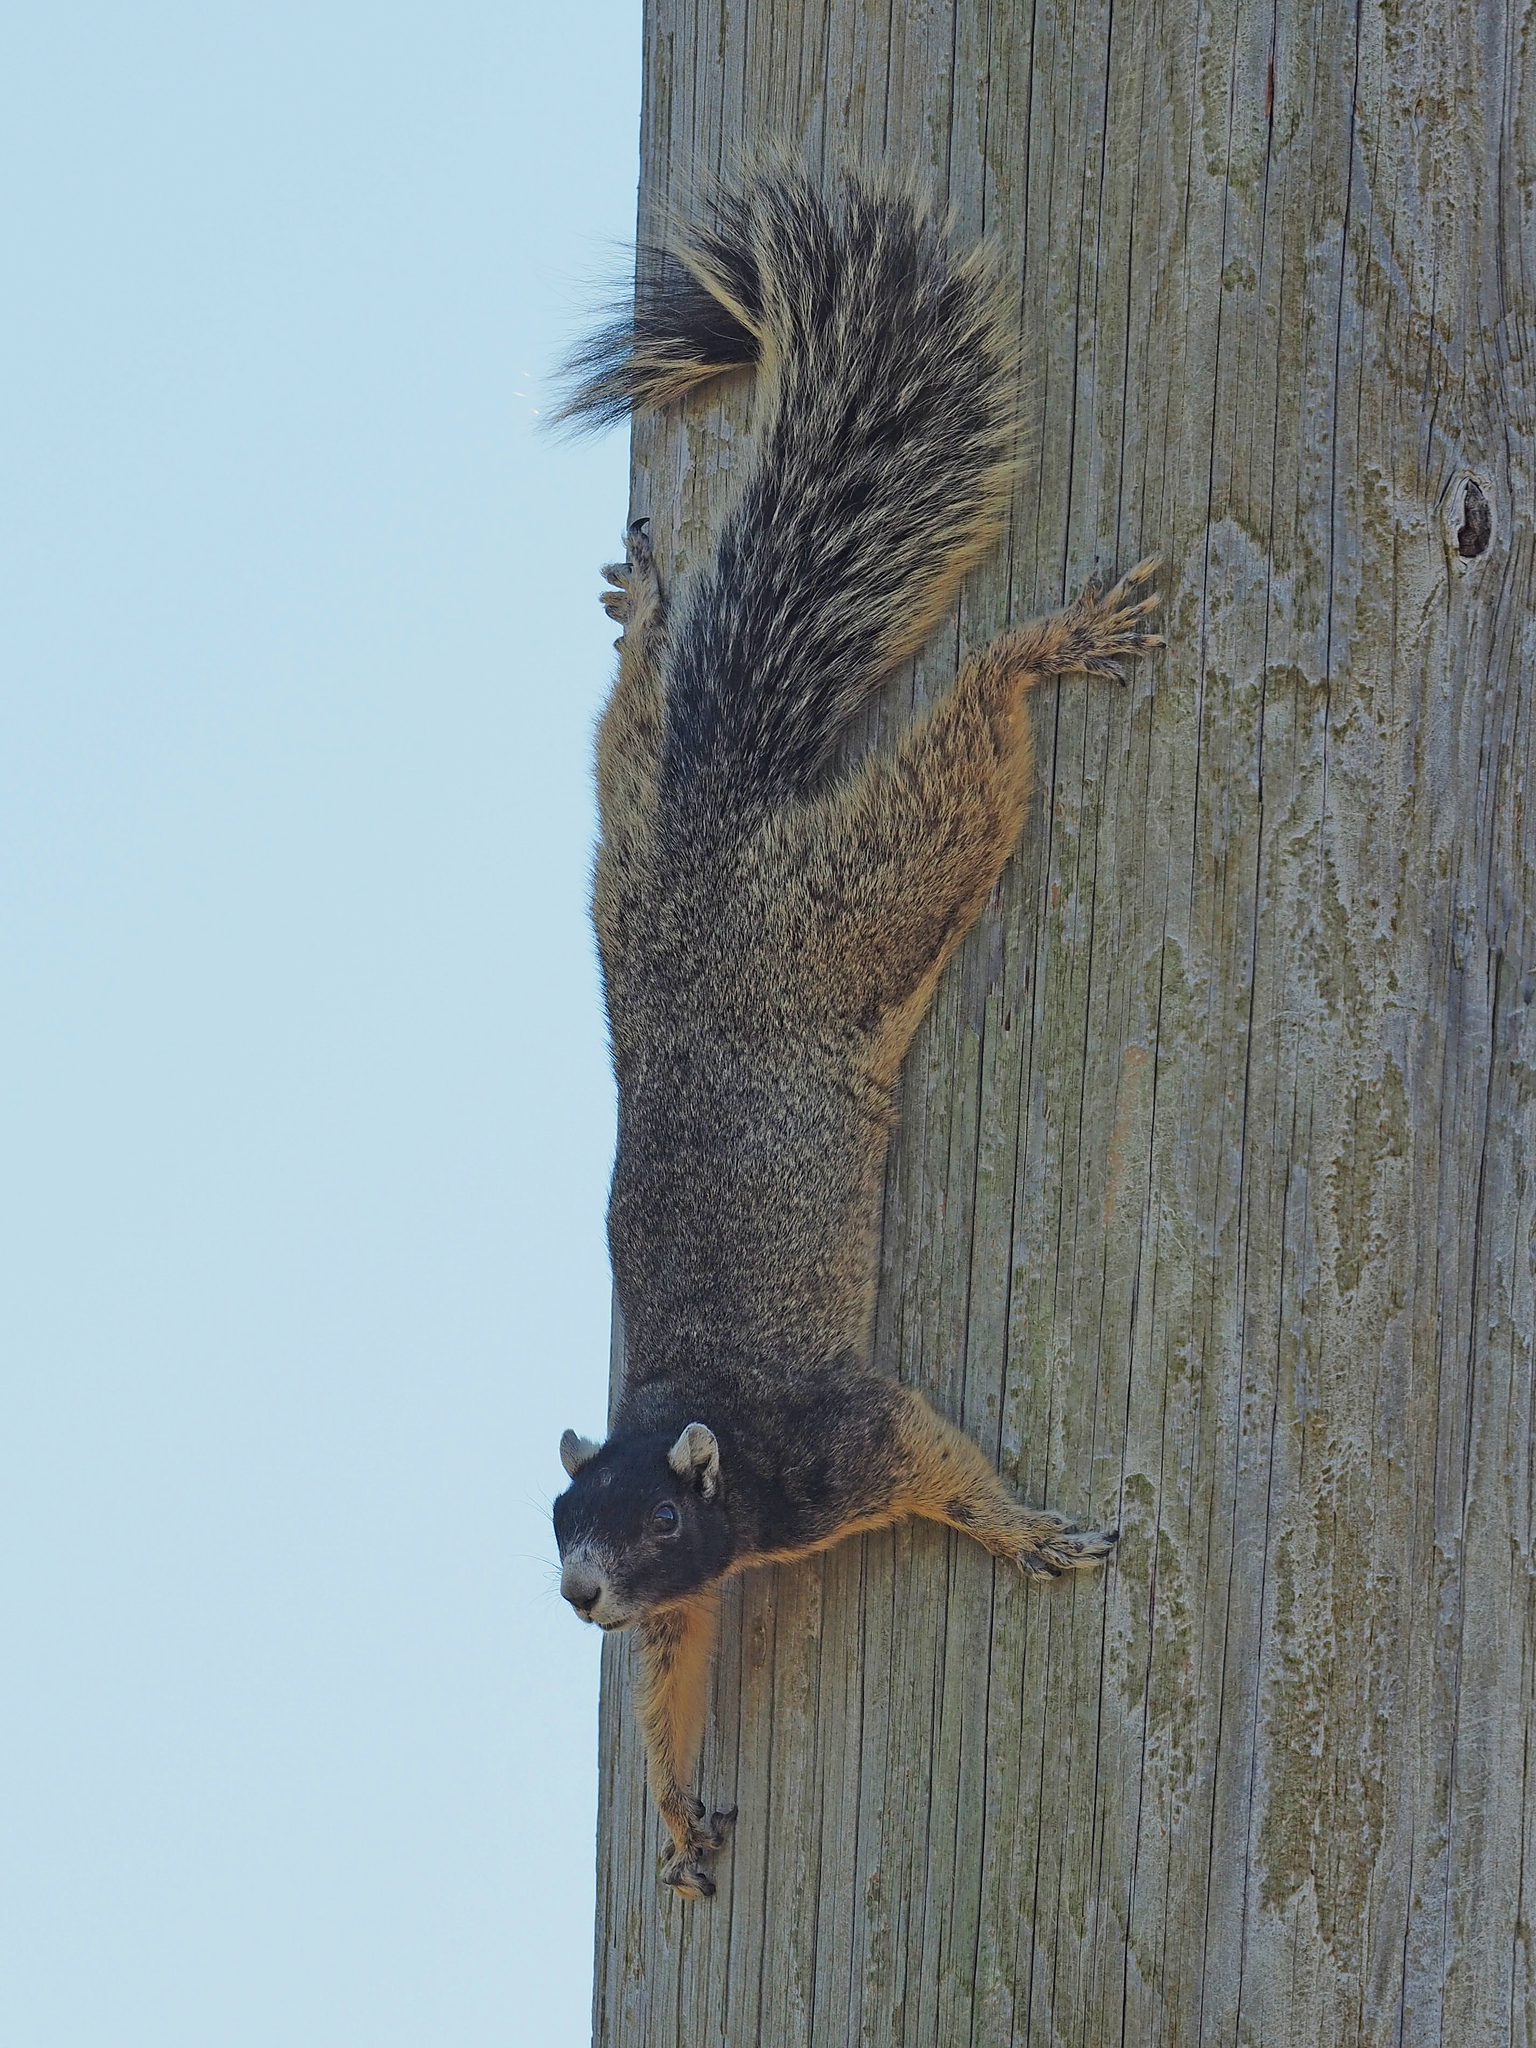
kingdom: Animalia
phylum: Chordata
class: Mammalia
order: Rodentia
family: Sciuridae
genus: Sciurus
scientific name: Sciurus niger
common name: Fox squirrel
